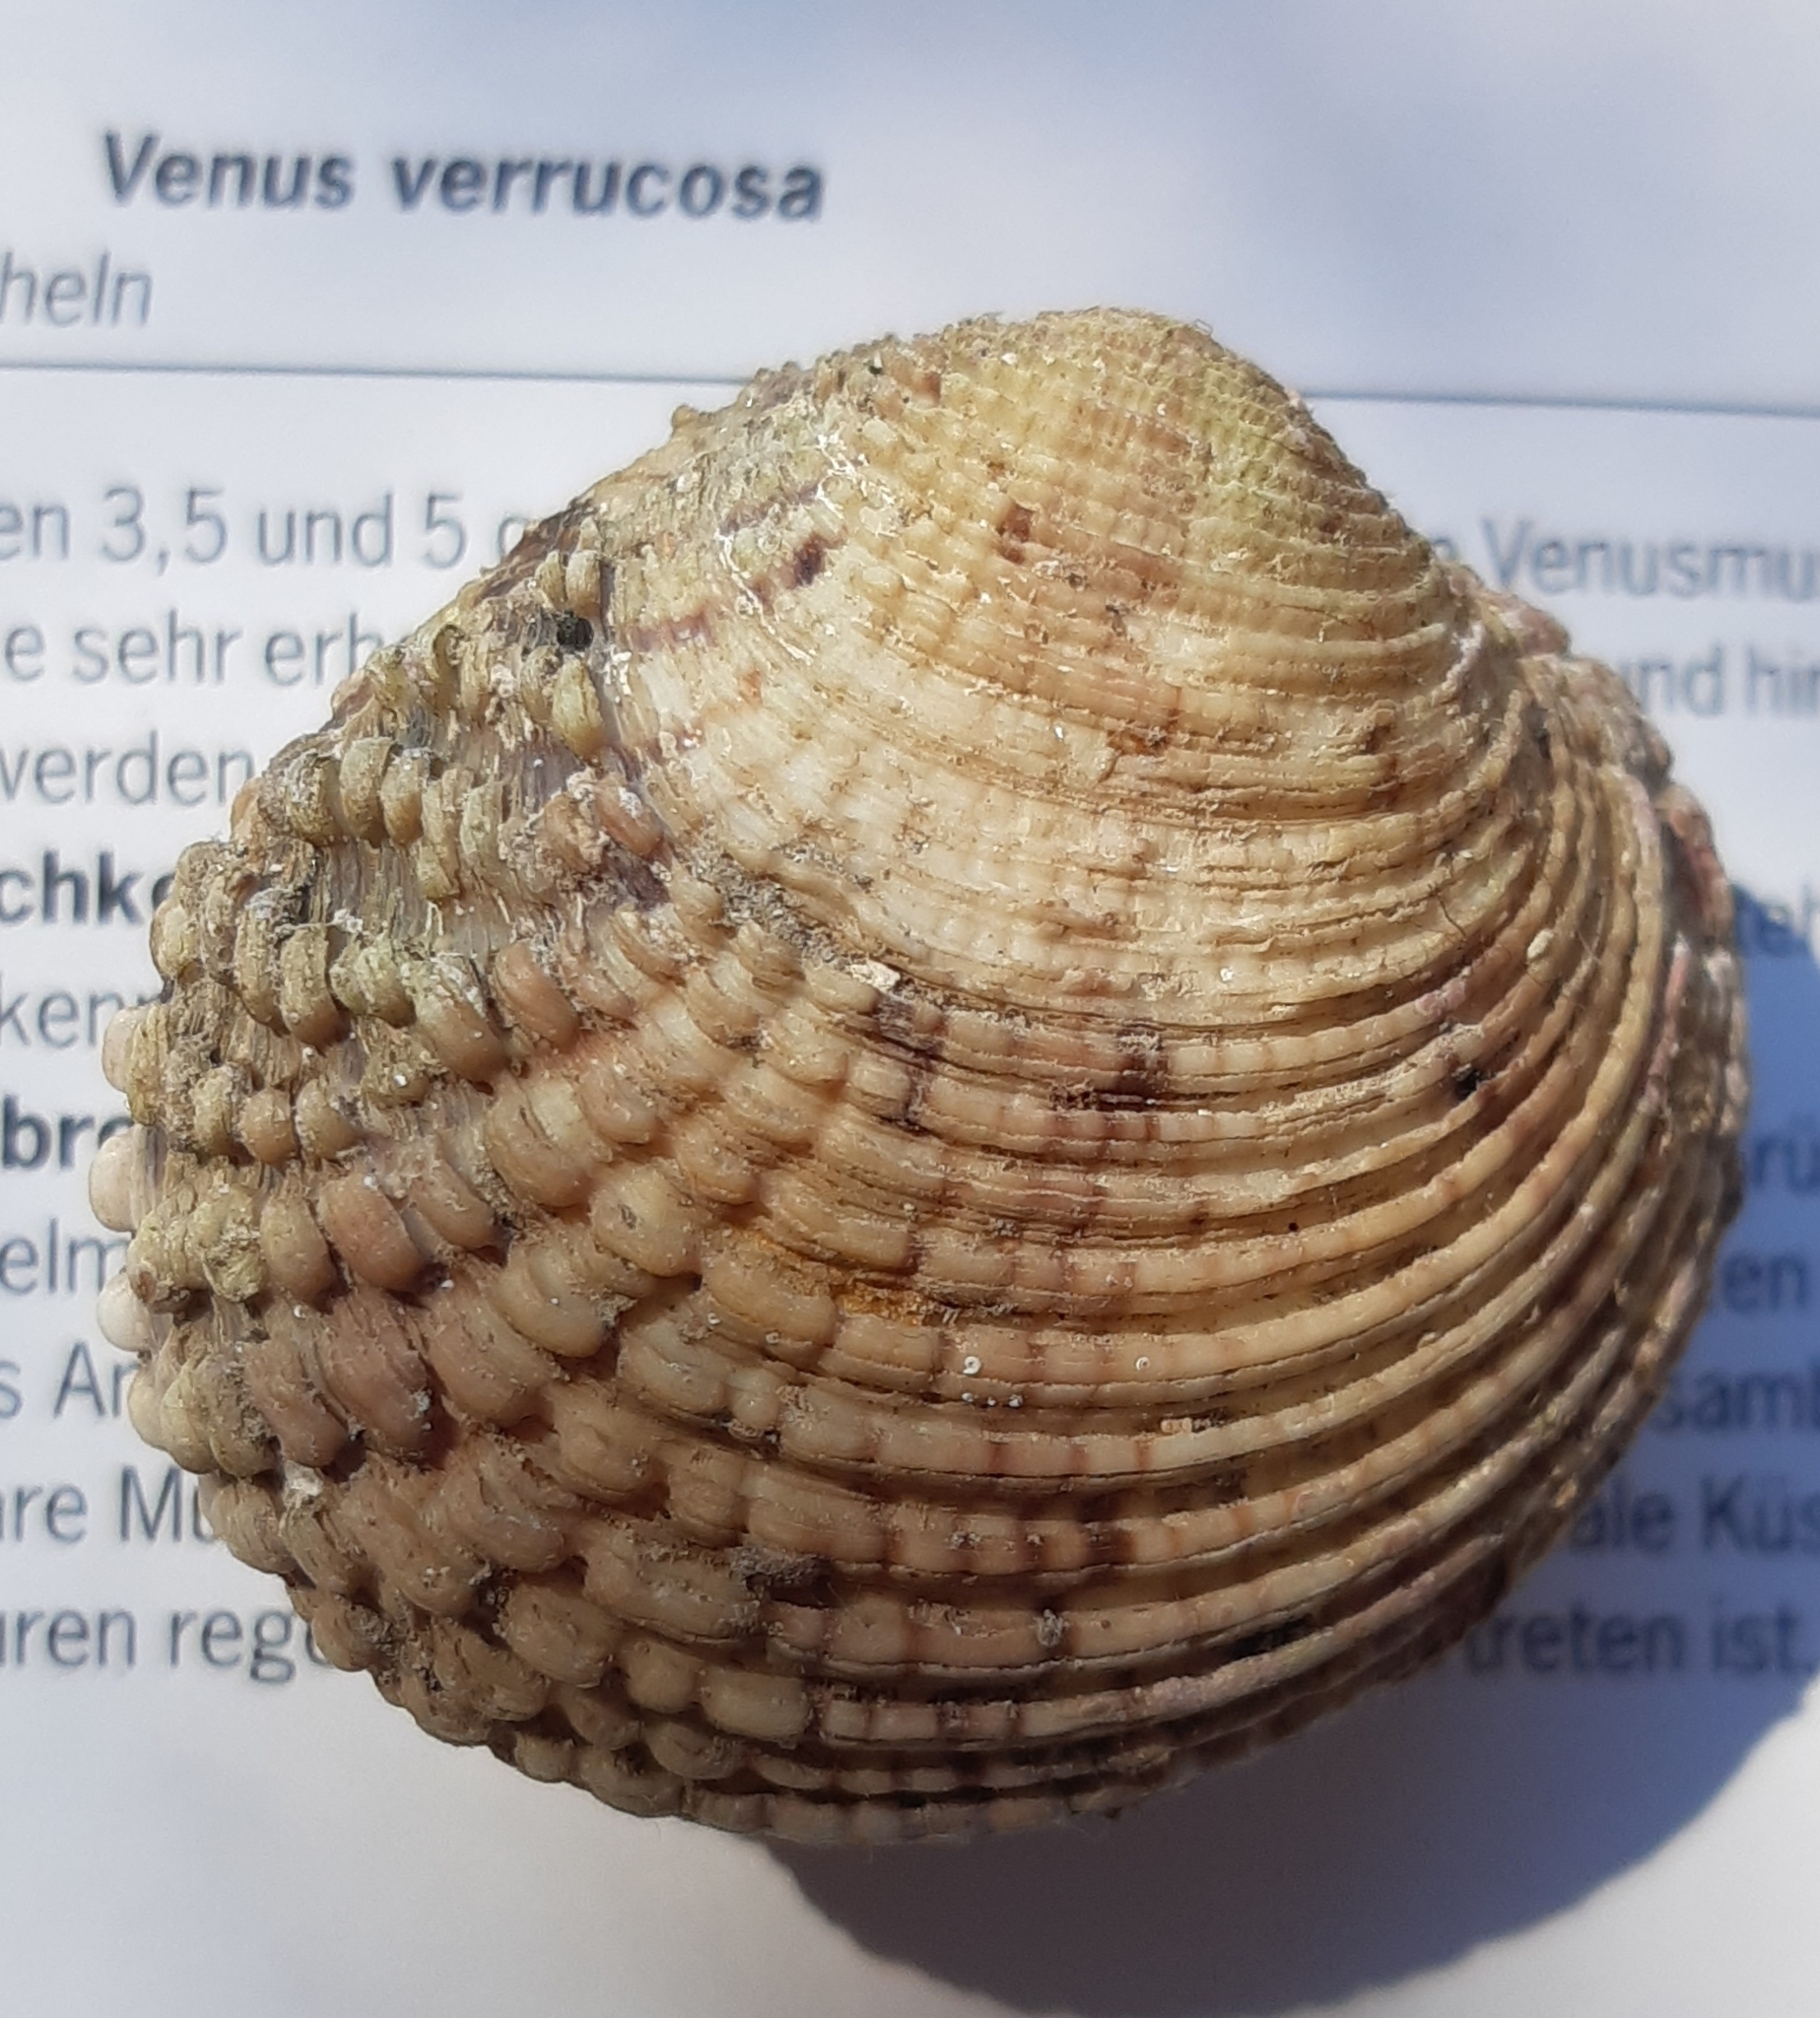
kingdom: Animalia
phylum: Mollusca
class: Bivalvia
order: Venerida
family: Veneridae
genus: Venus
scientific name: Venus verrucosa
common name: Warty venus
